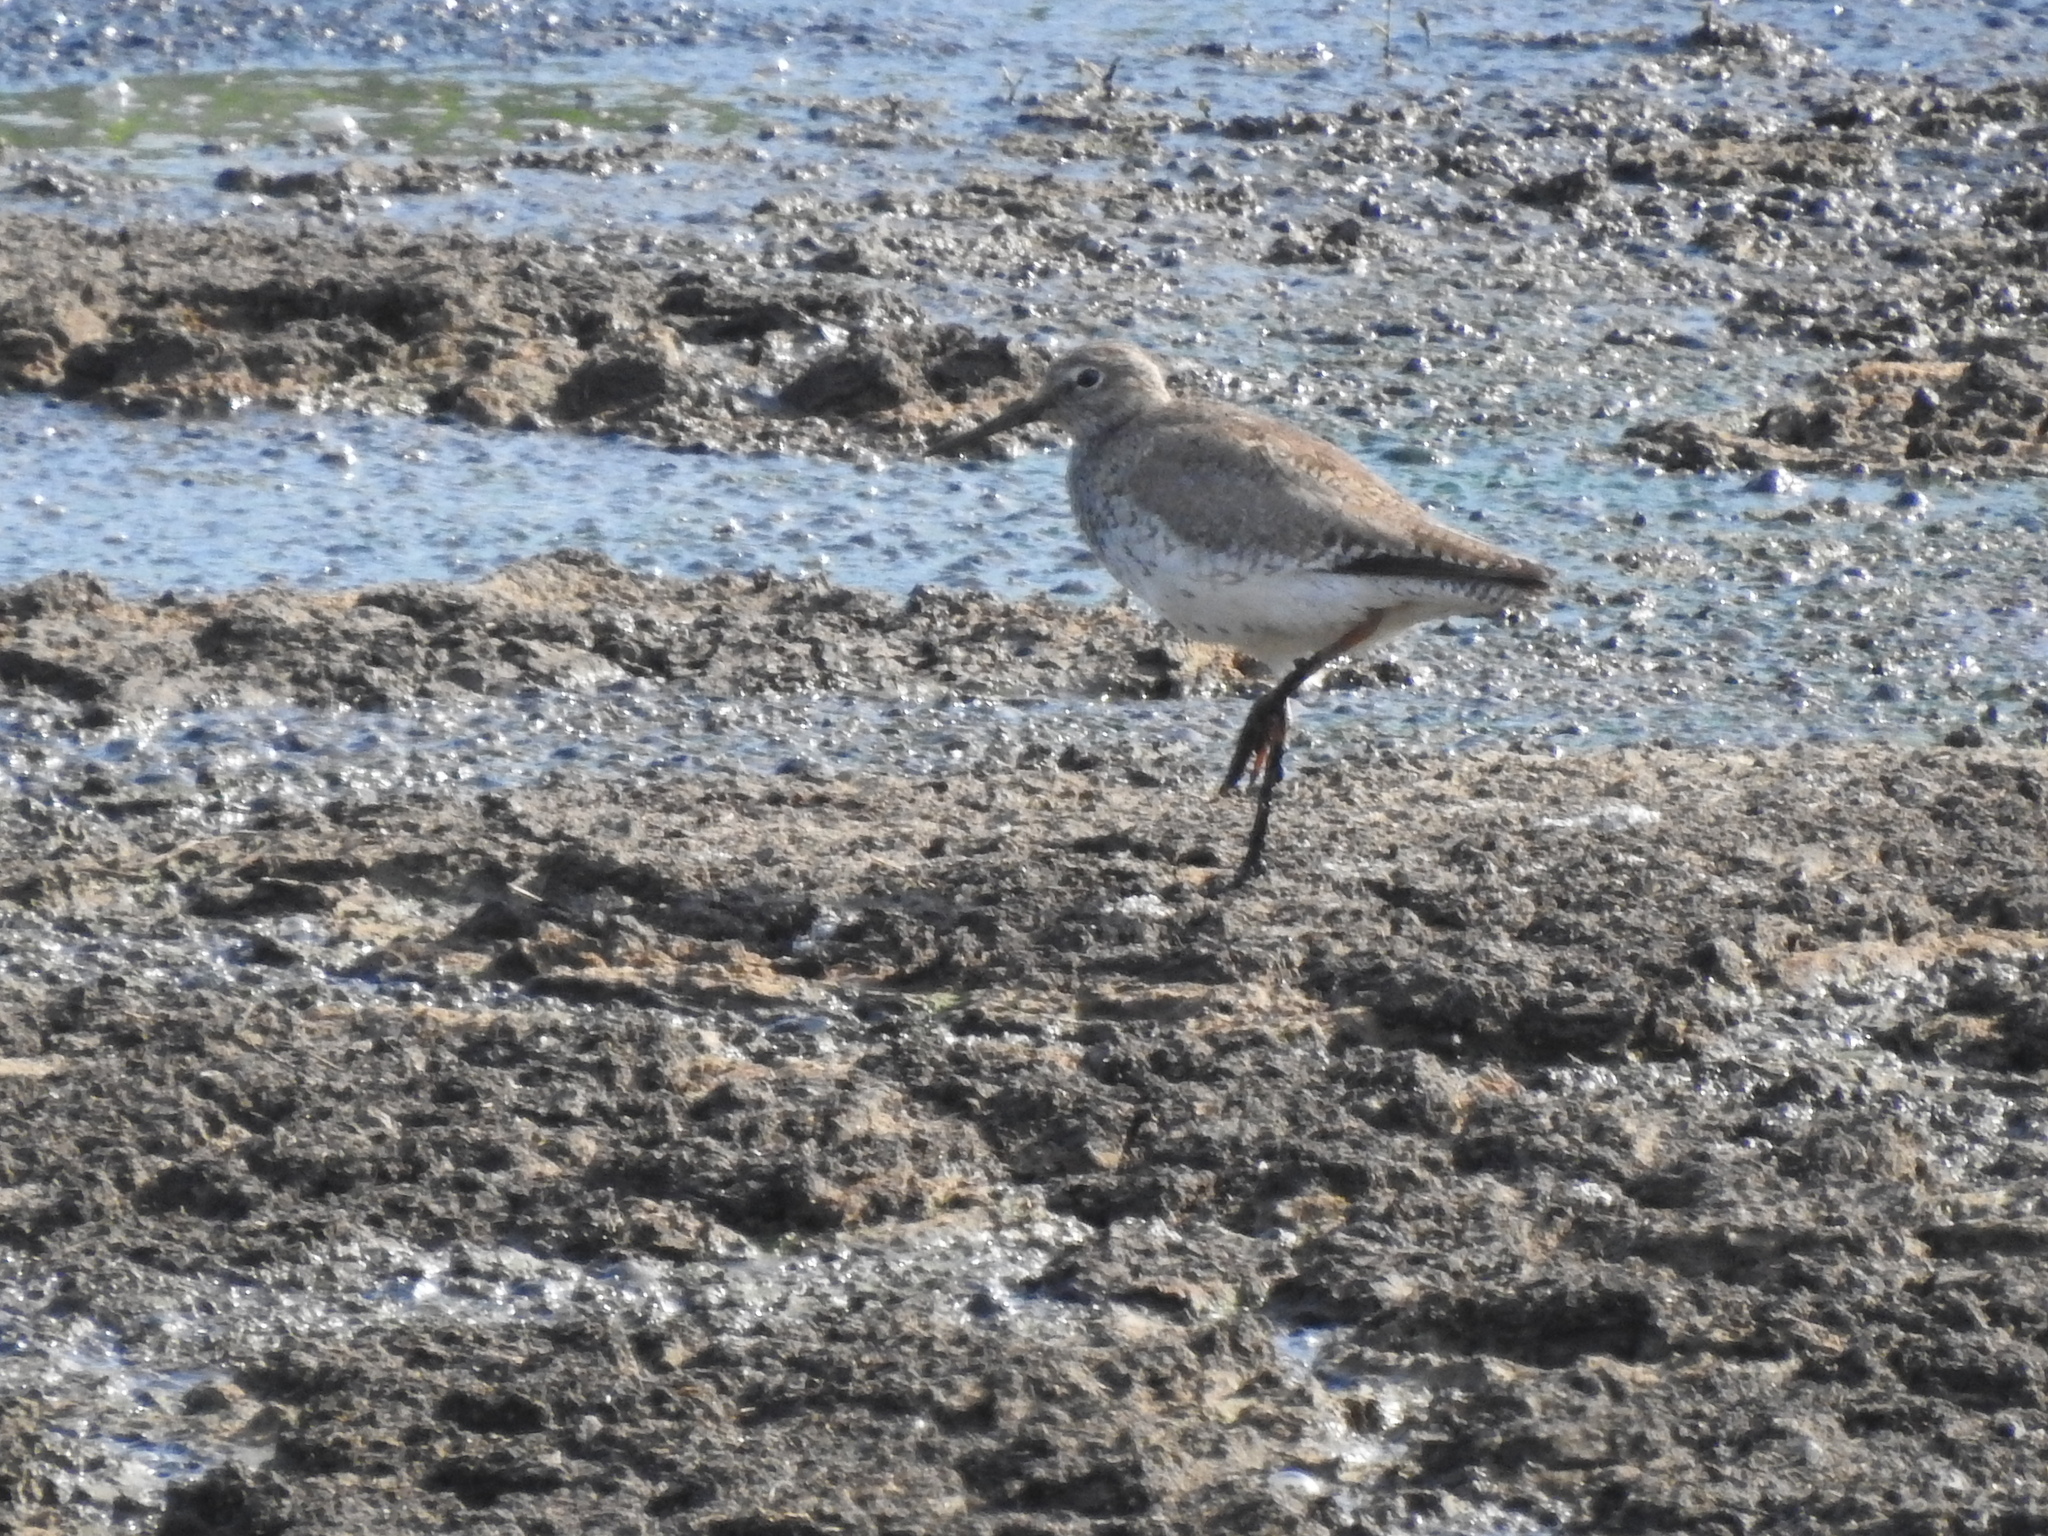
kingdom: Animalia
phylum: Chordata
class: Aves
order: Charadriiformes
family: Scolopacidae
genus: Tringa
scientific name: Tringa totanus
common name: Common redshank
